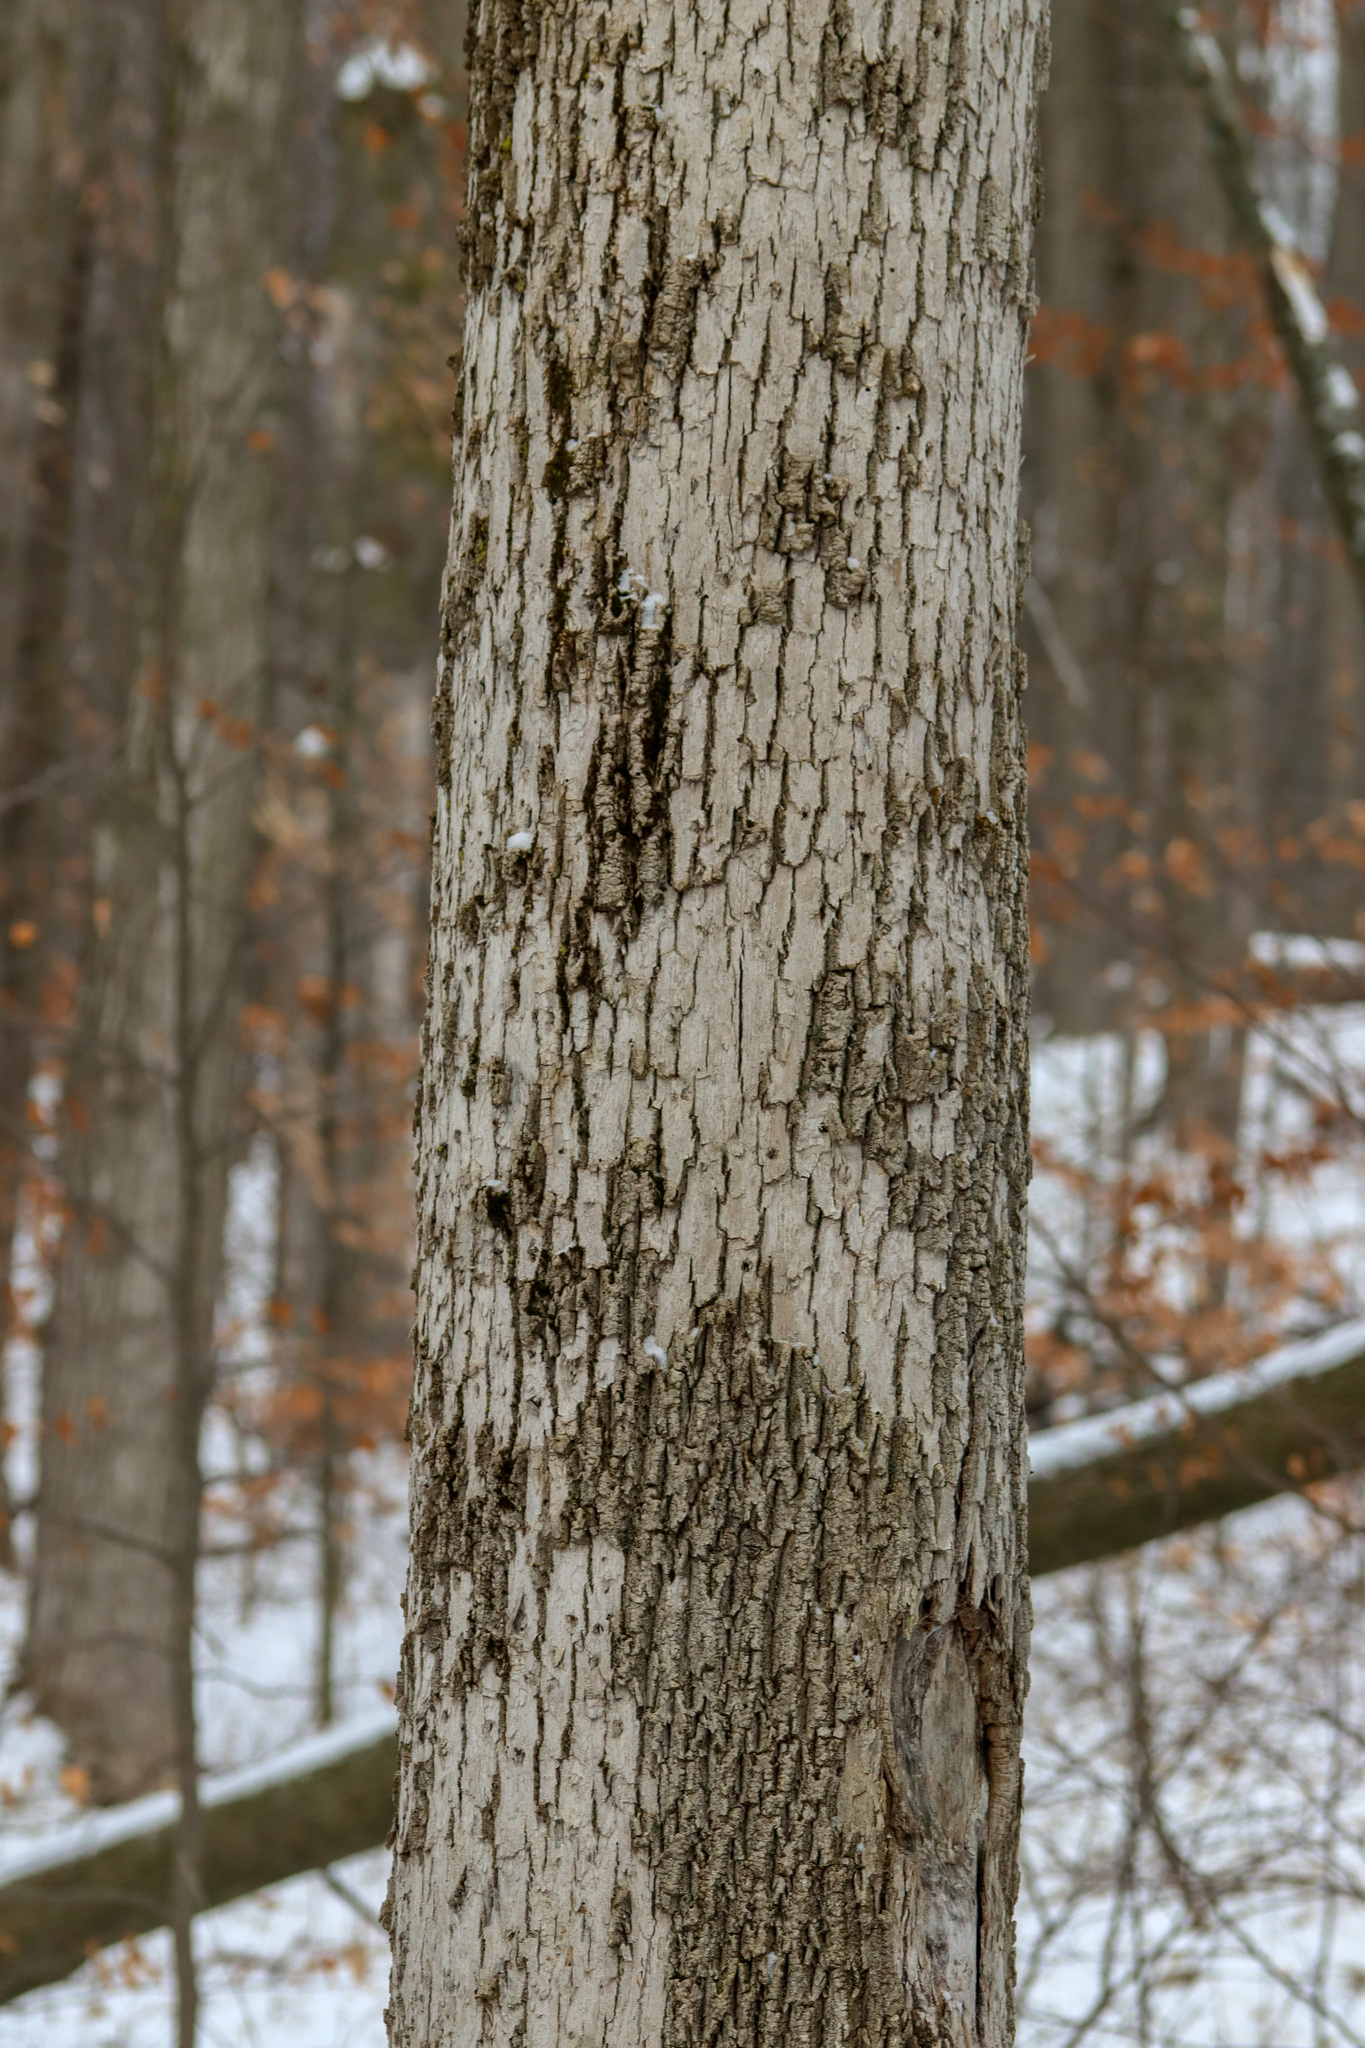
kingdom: Animalia
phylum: Arthropoda
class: Insecta
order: Coleoptera
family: Buprestidae
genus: Agrilus
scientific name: Agrilus planipennis
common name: Emerald ash borer
